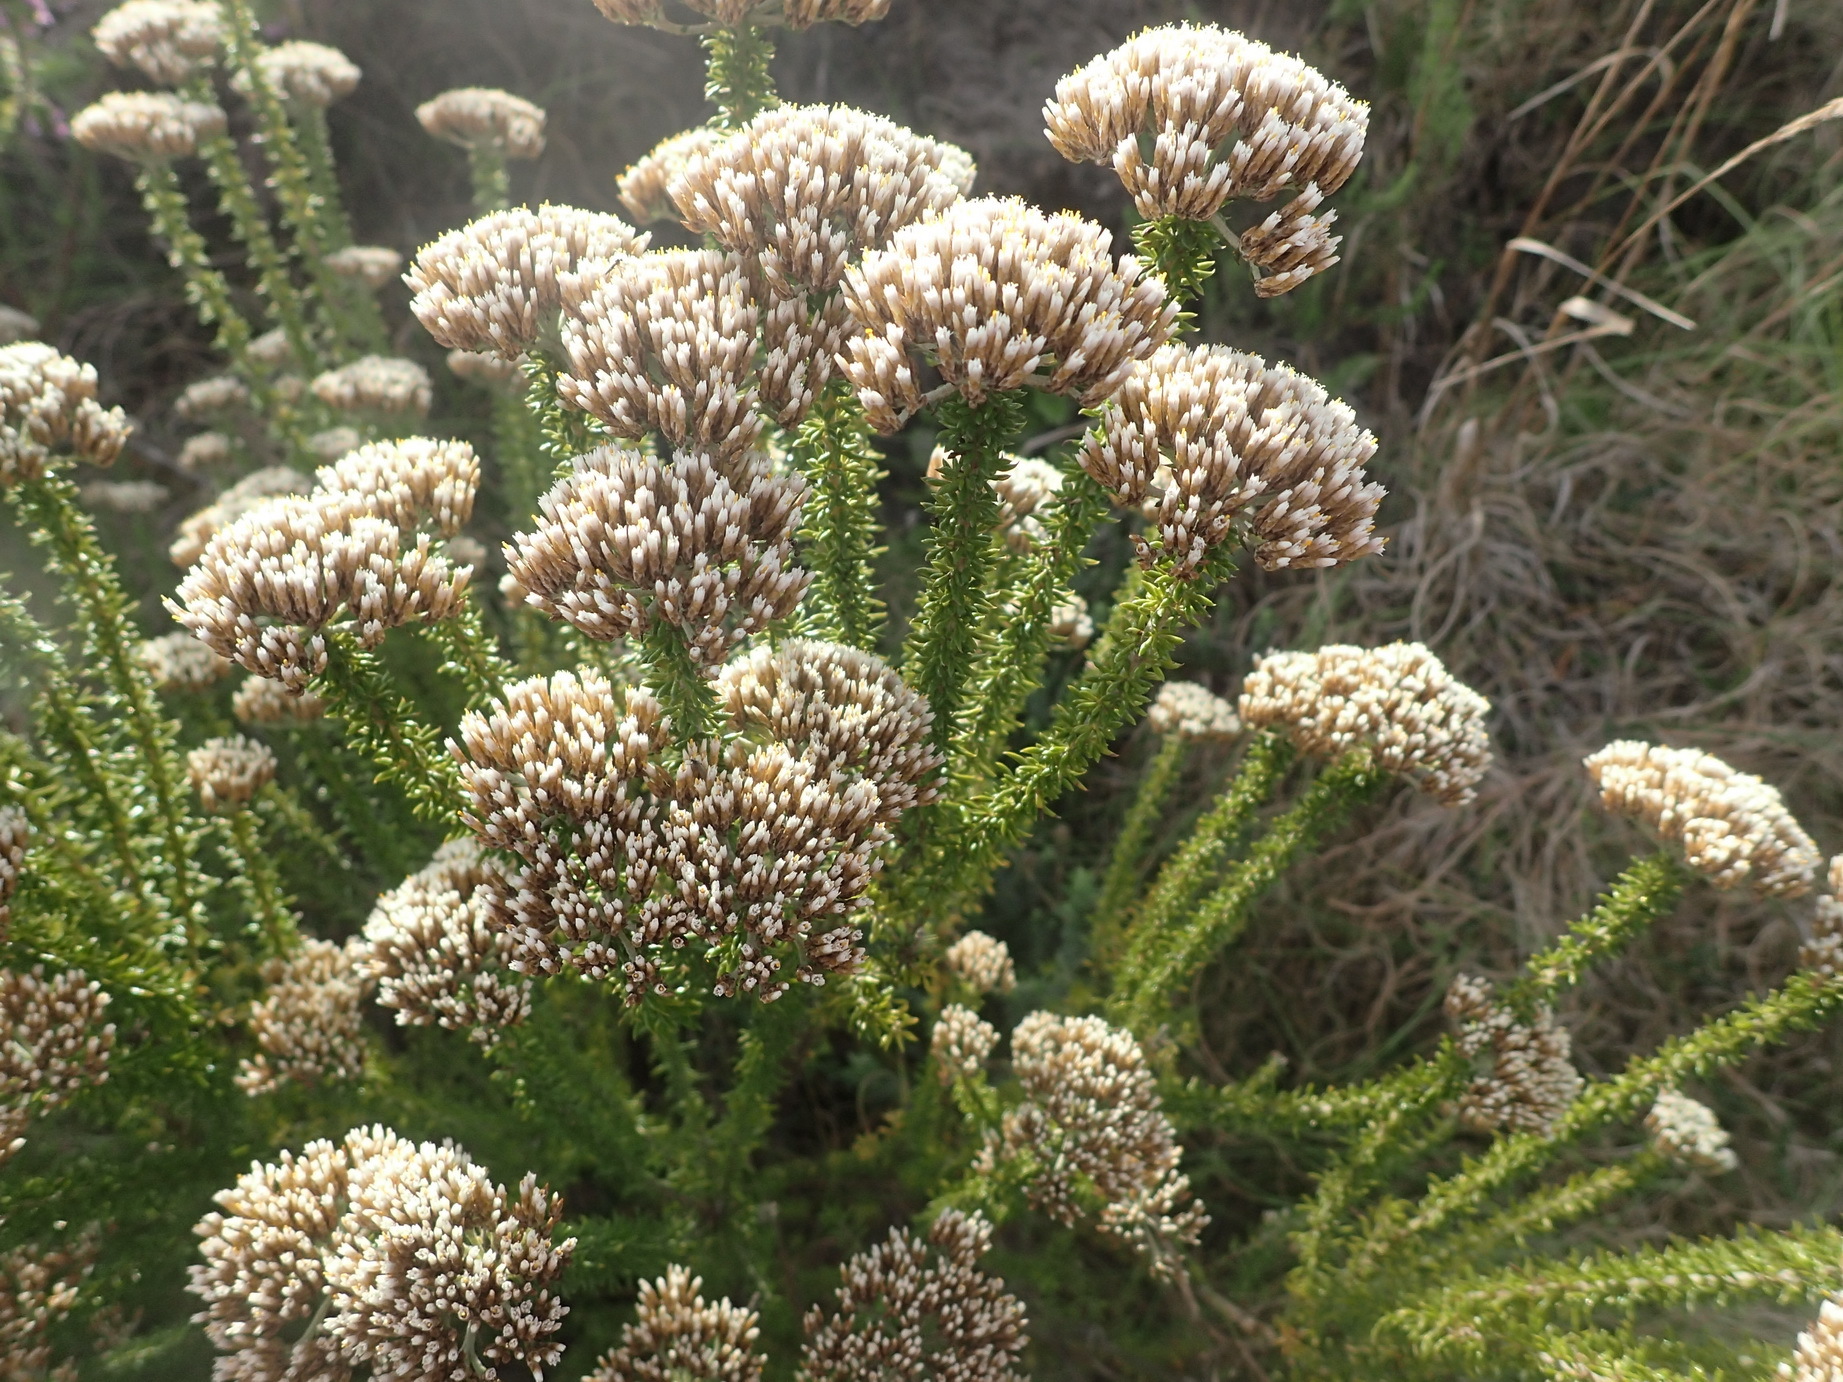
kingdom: Plantae
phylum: Tracheophyta
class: Magnoliopsida
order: Asterales
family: Asteraceae
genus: Metalasia
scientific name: Metalasia muricata
